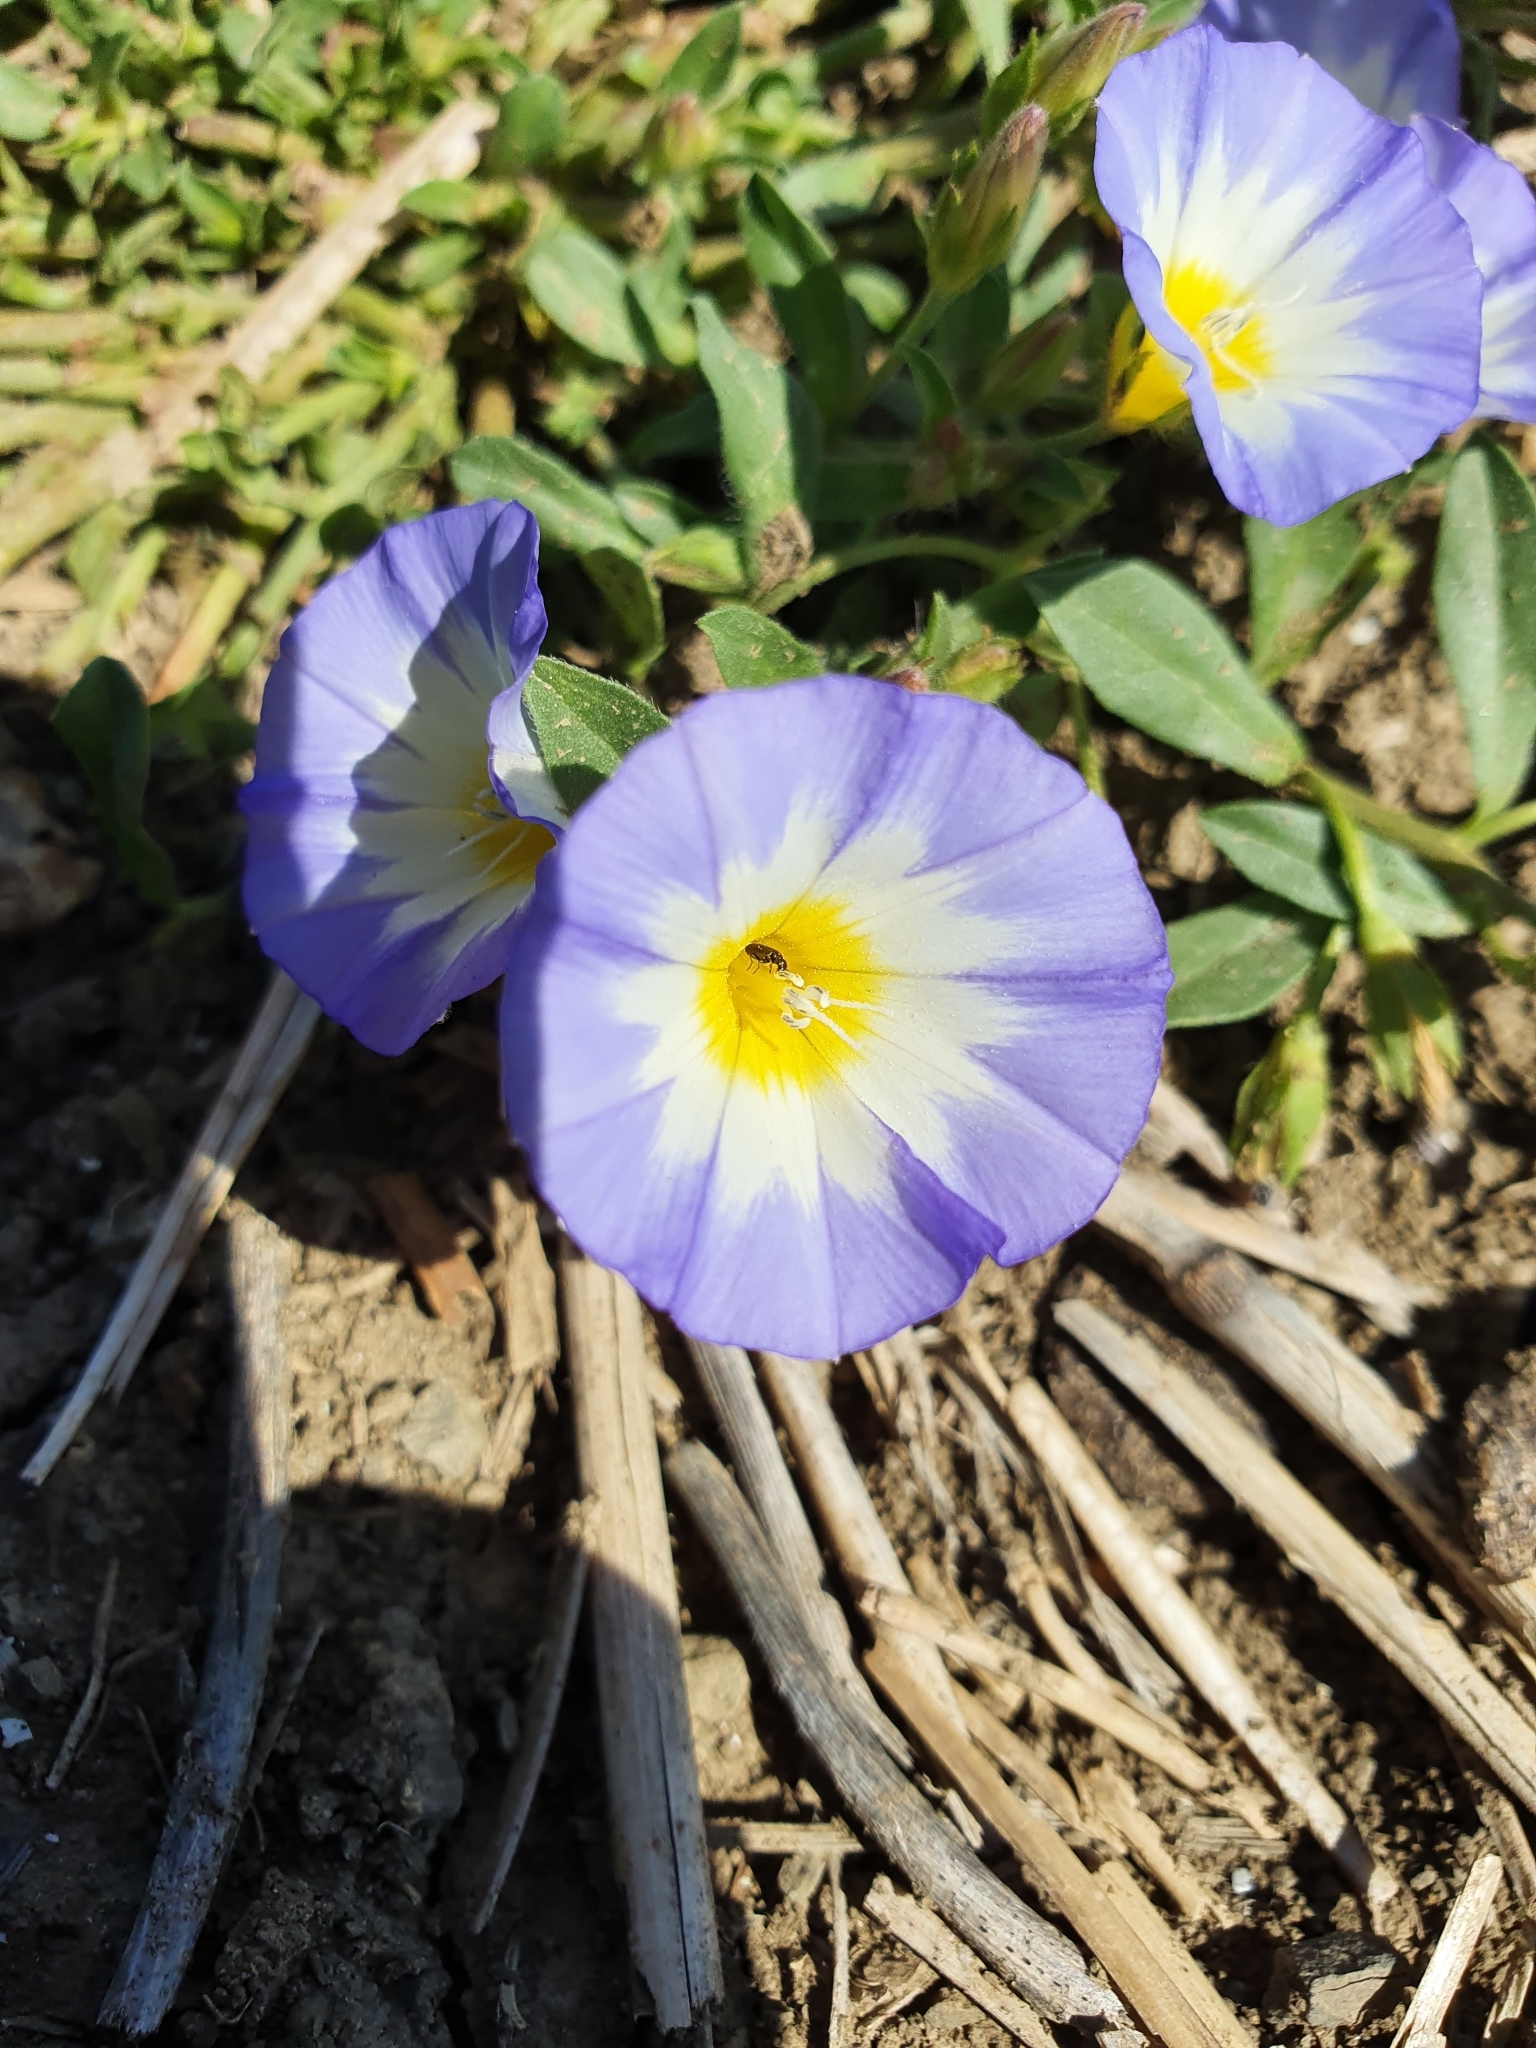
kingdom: Plantae
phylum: Tracheophyta
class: Magnoliopsida
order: Solanales
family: Convolvulaceae
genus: Convolvulus
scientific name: Convolvulus tricolor
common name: Dwarf morning-glory
